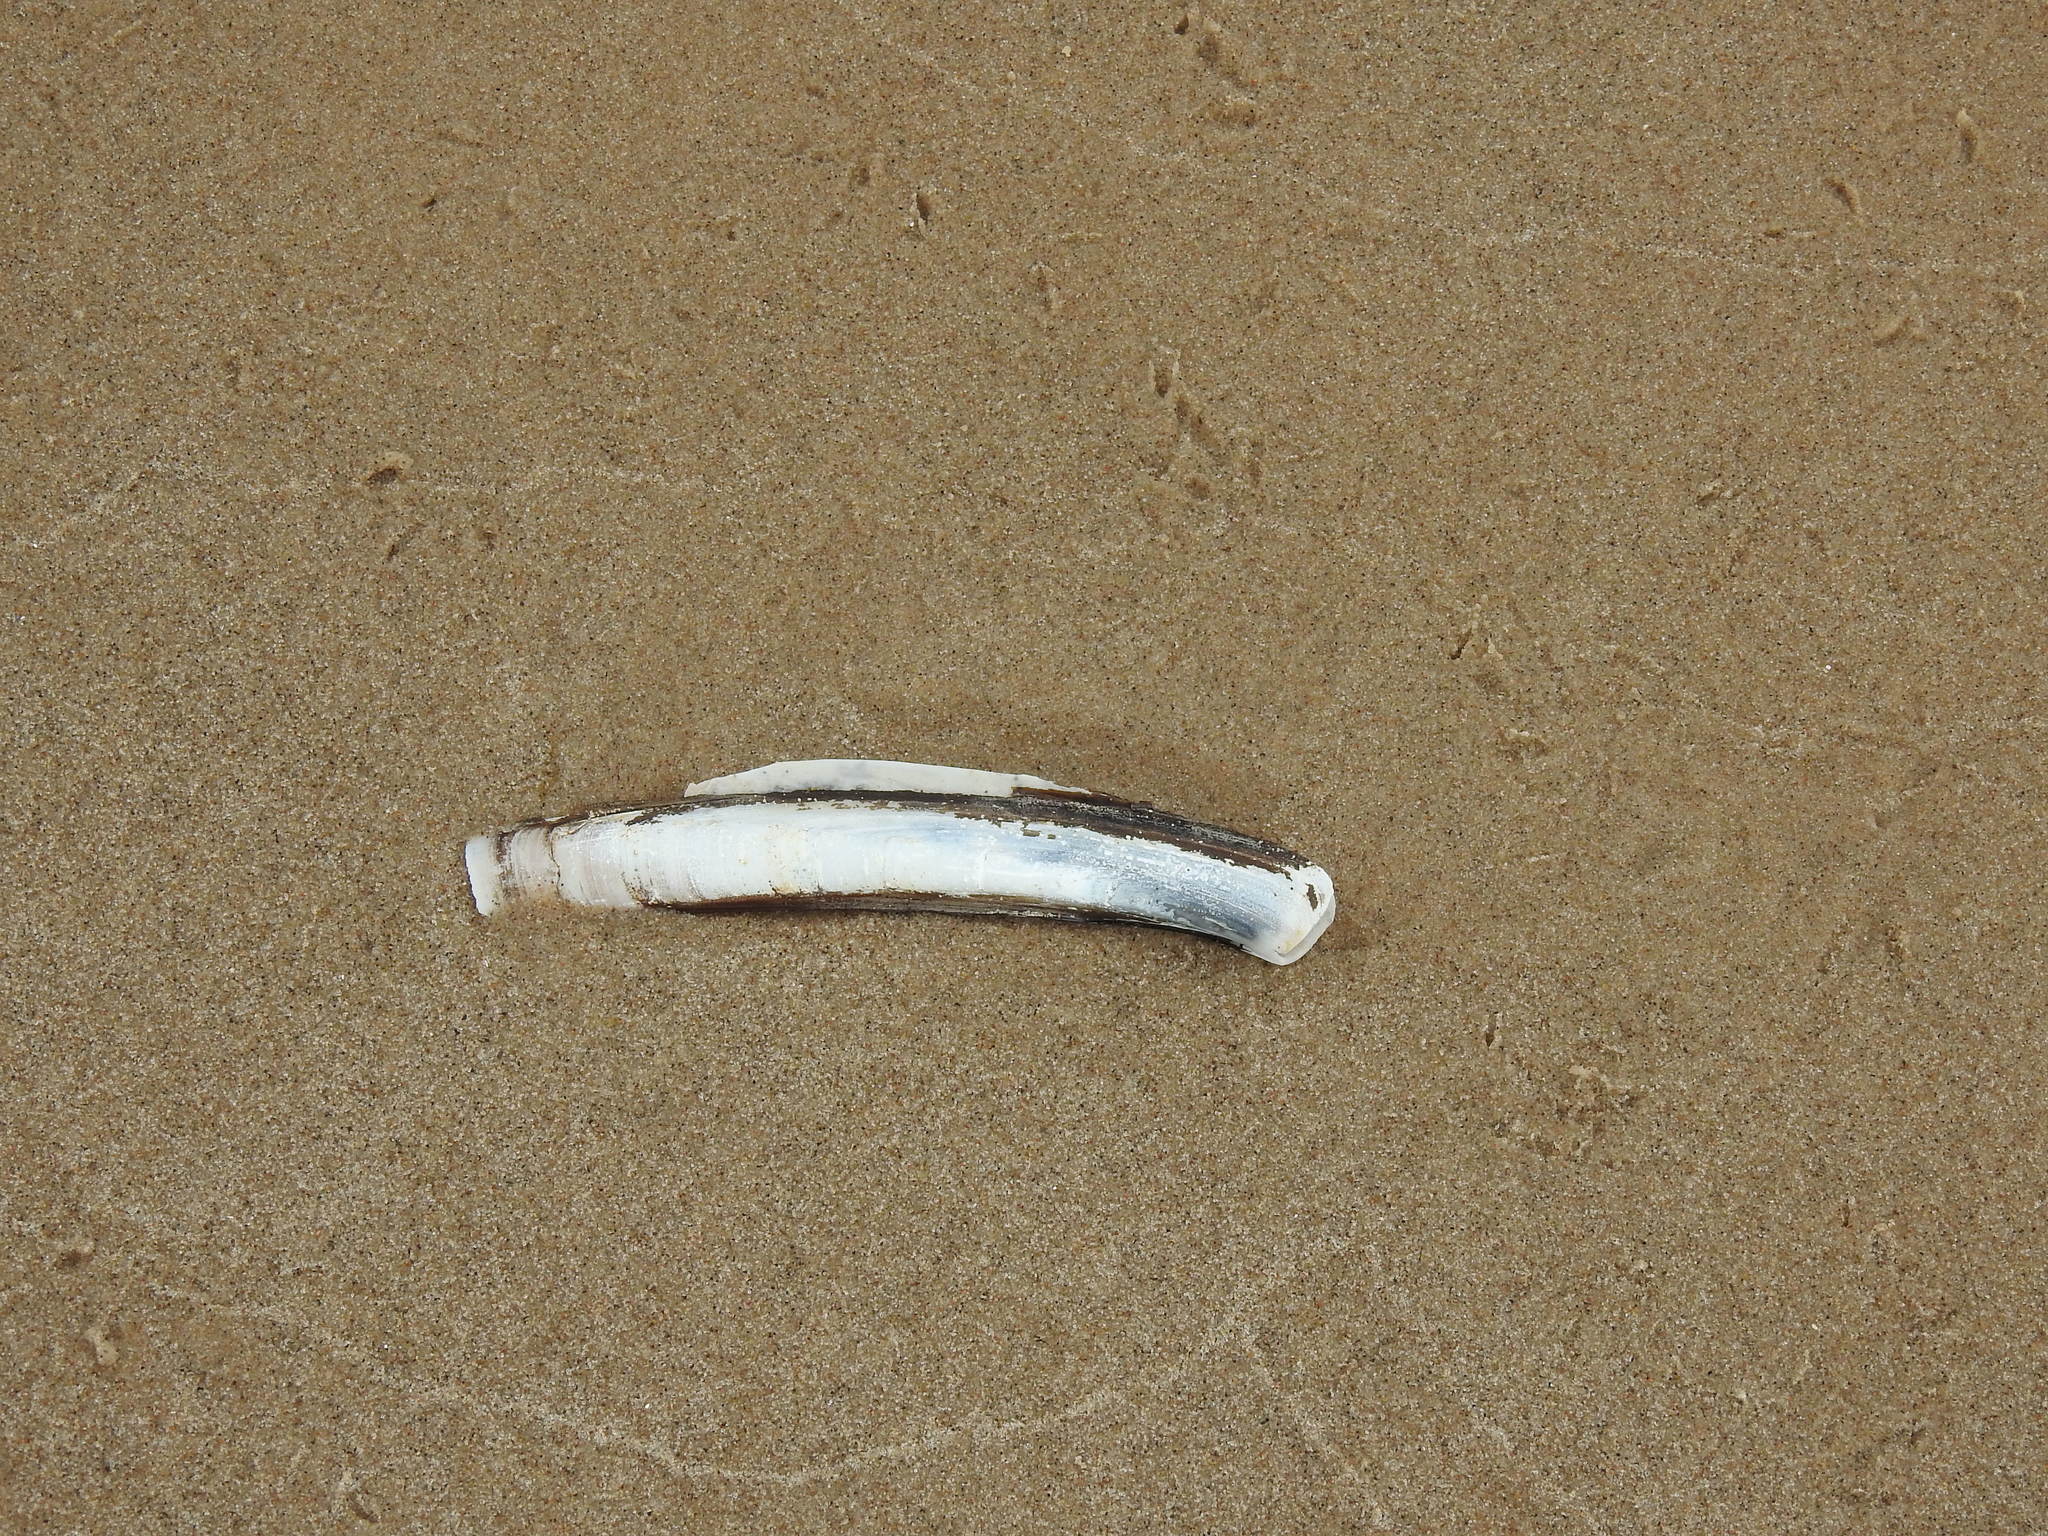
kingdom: Animalia
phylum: Mollusca
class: Bivalvia
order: Adapedonta
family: Pharidae
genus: Ensis
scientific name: Ensis leei
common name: American jack knife clam
